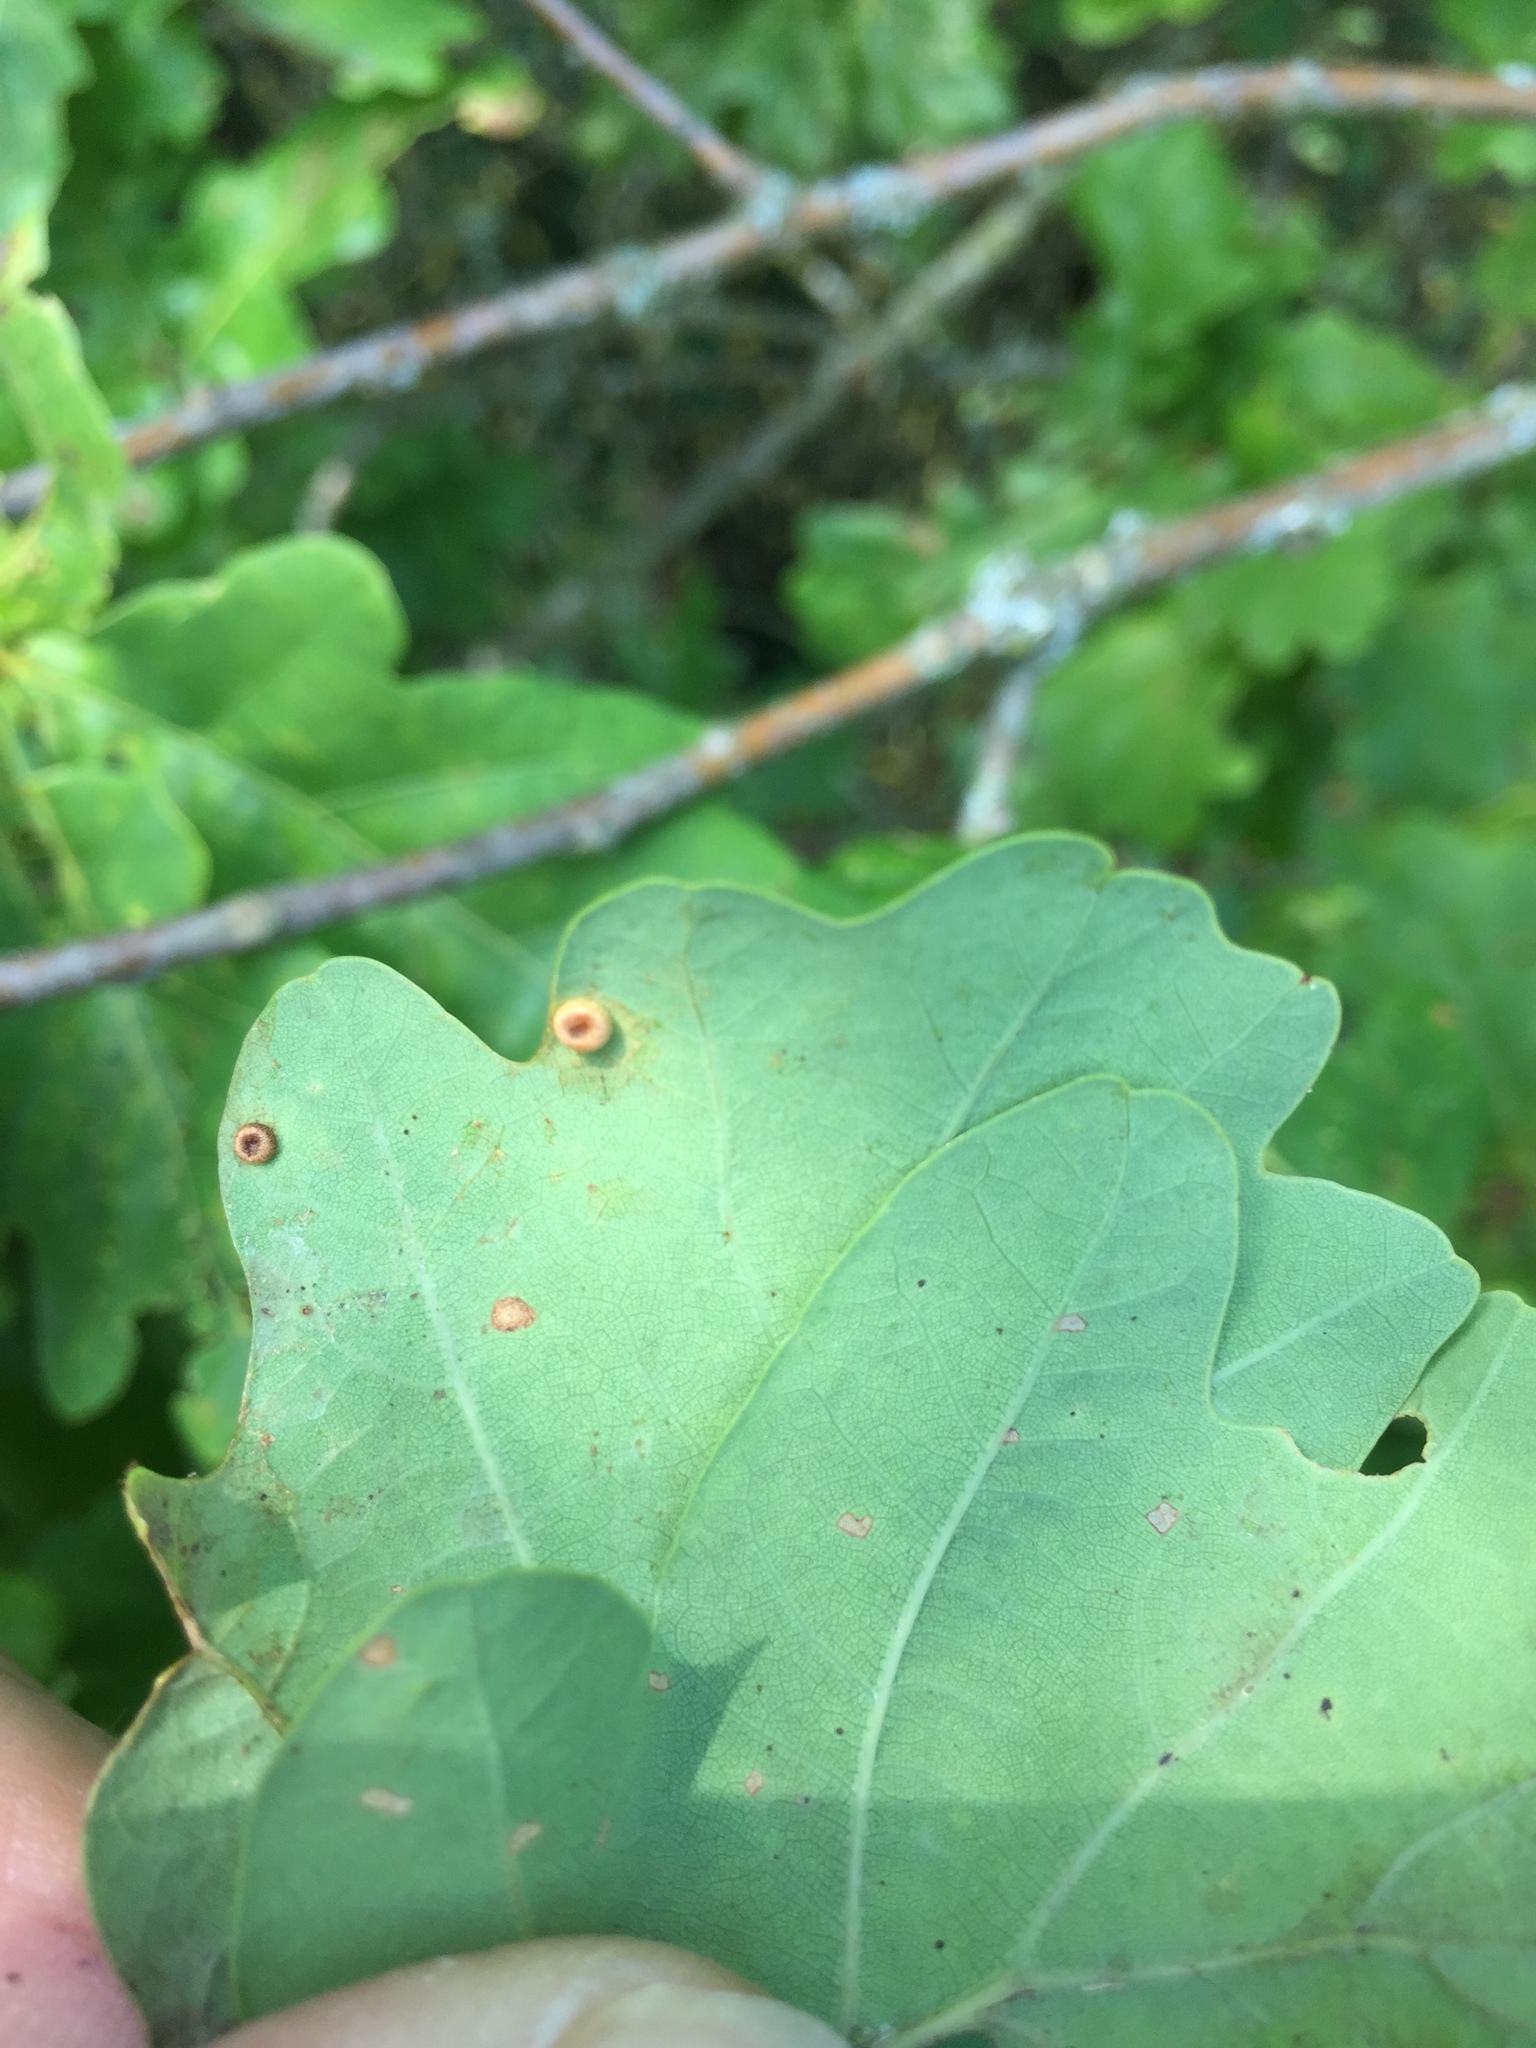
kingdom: Animalia
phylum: Arthropoda
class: Insecta
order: Hymenoptera
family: Cynipidae
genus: Neuroterus
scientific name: Neuroterus numismalis
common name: Silk-button spangle gall
